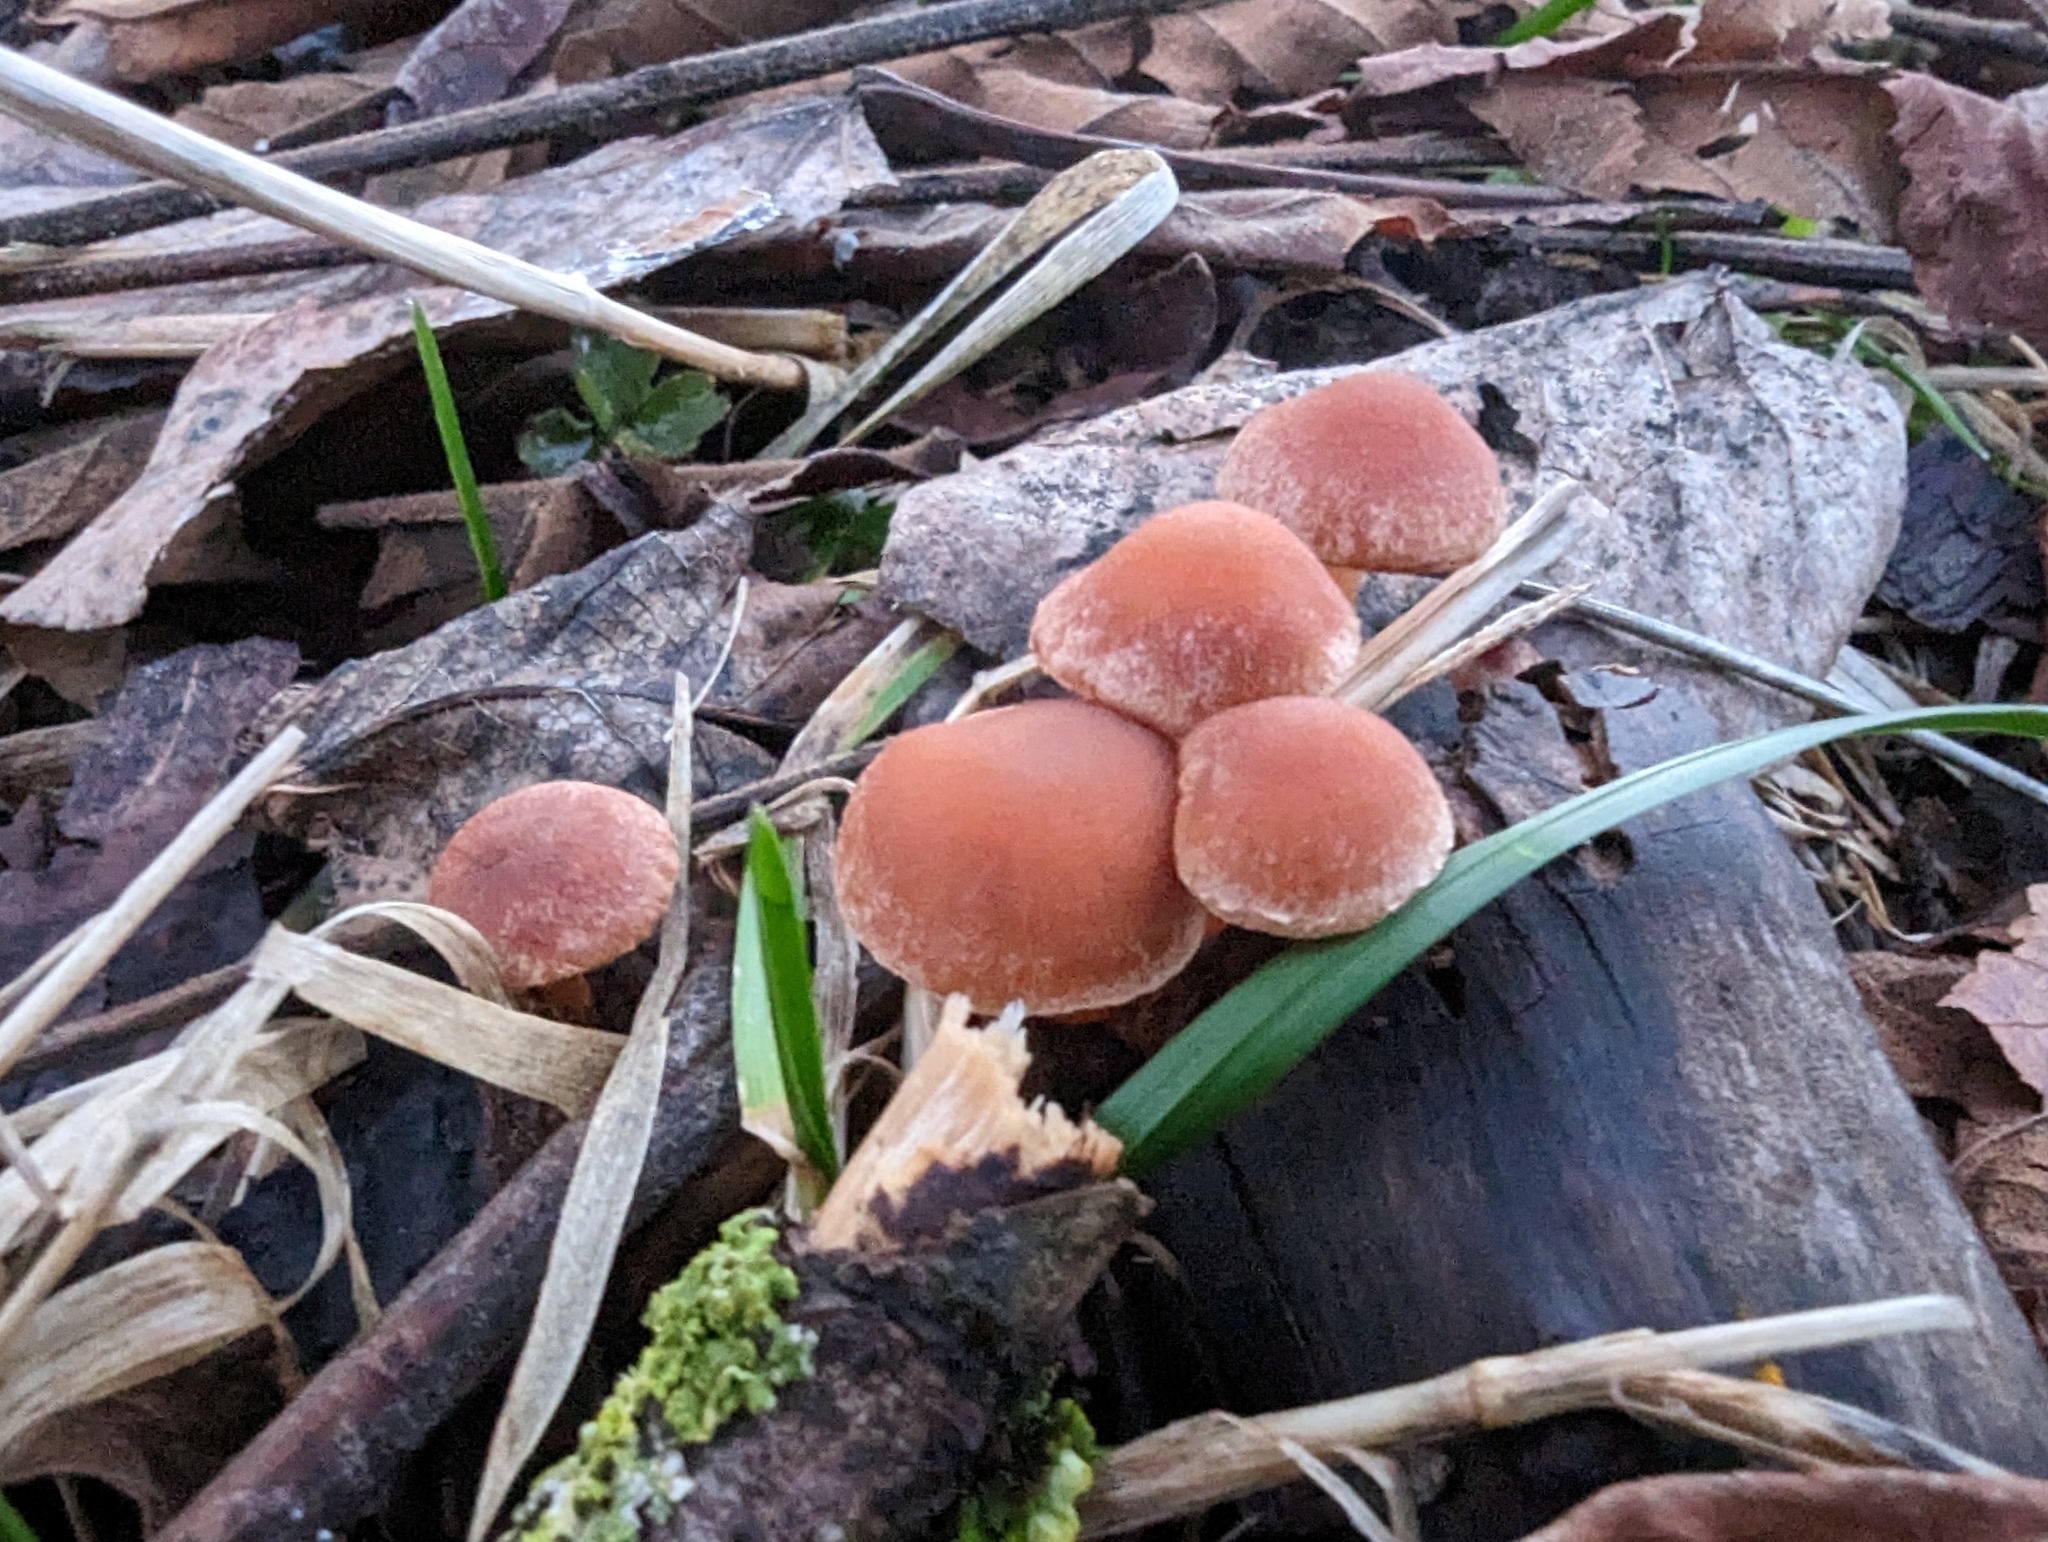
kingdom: Fungi
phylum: Basidiomycota
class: Agaricomycetes
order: Agaricales
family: Tubariaceae
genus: Tubaria
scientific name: Tubaria furfuracea
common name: Scurfy twiglet
